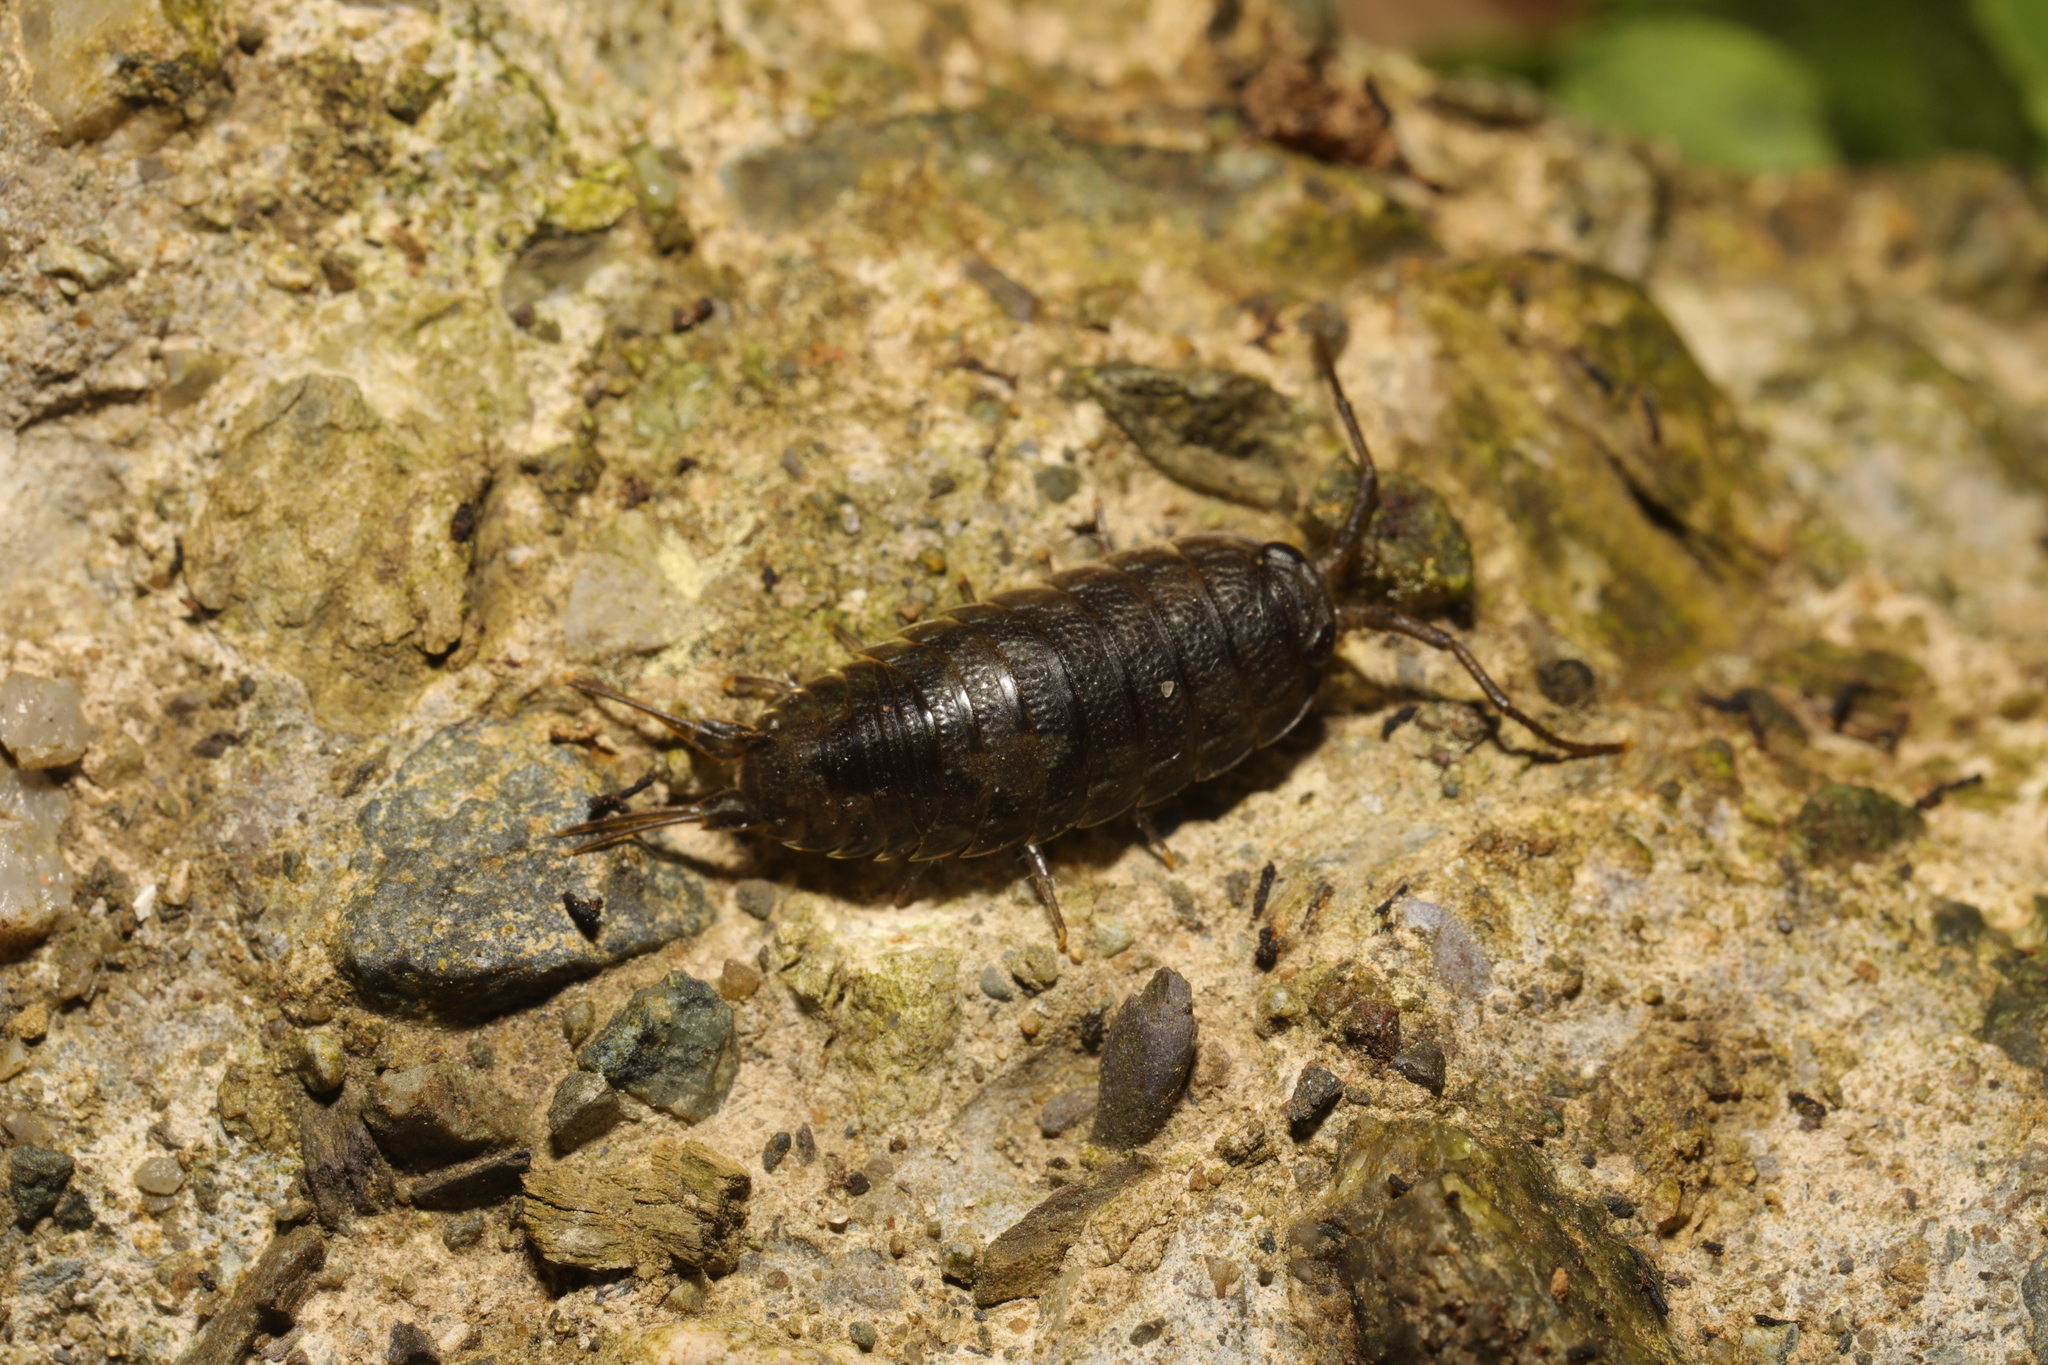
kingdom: Animalia
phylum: Arthropoda
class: Malacostraca
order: Isopoda
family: Ligiidae
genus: Ligia
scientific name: Ligia oceanica
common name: Sea slater
